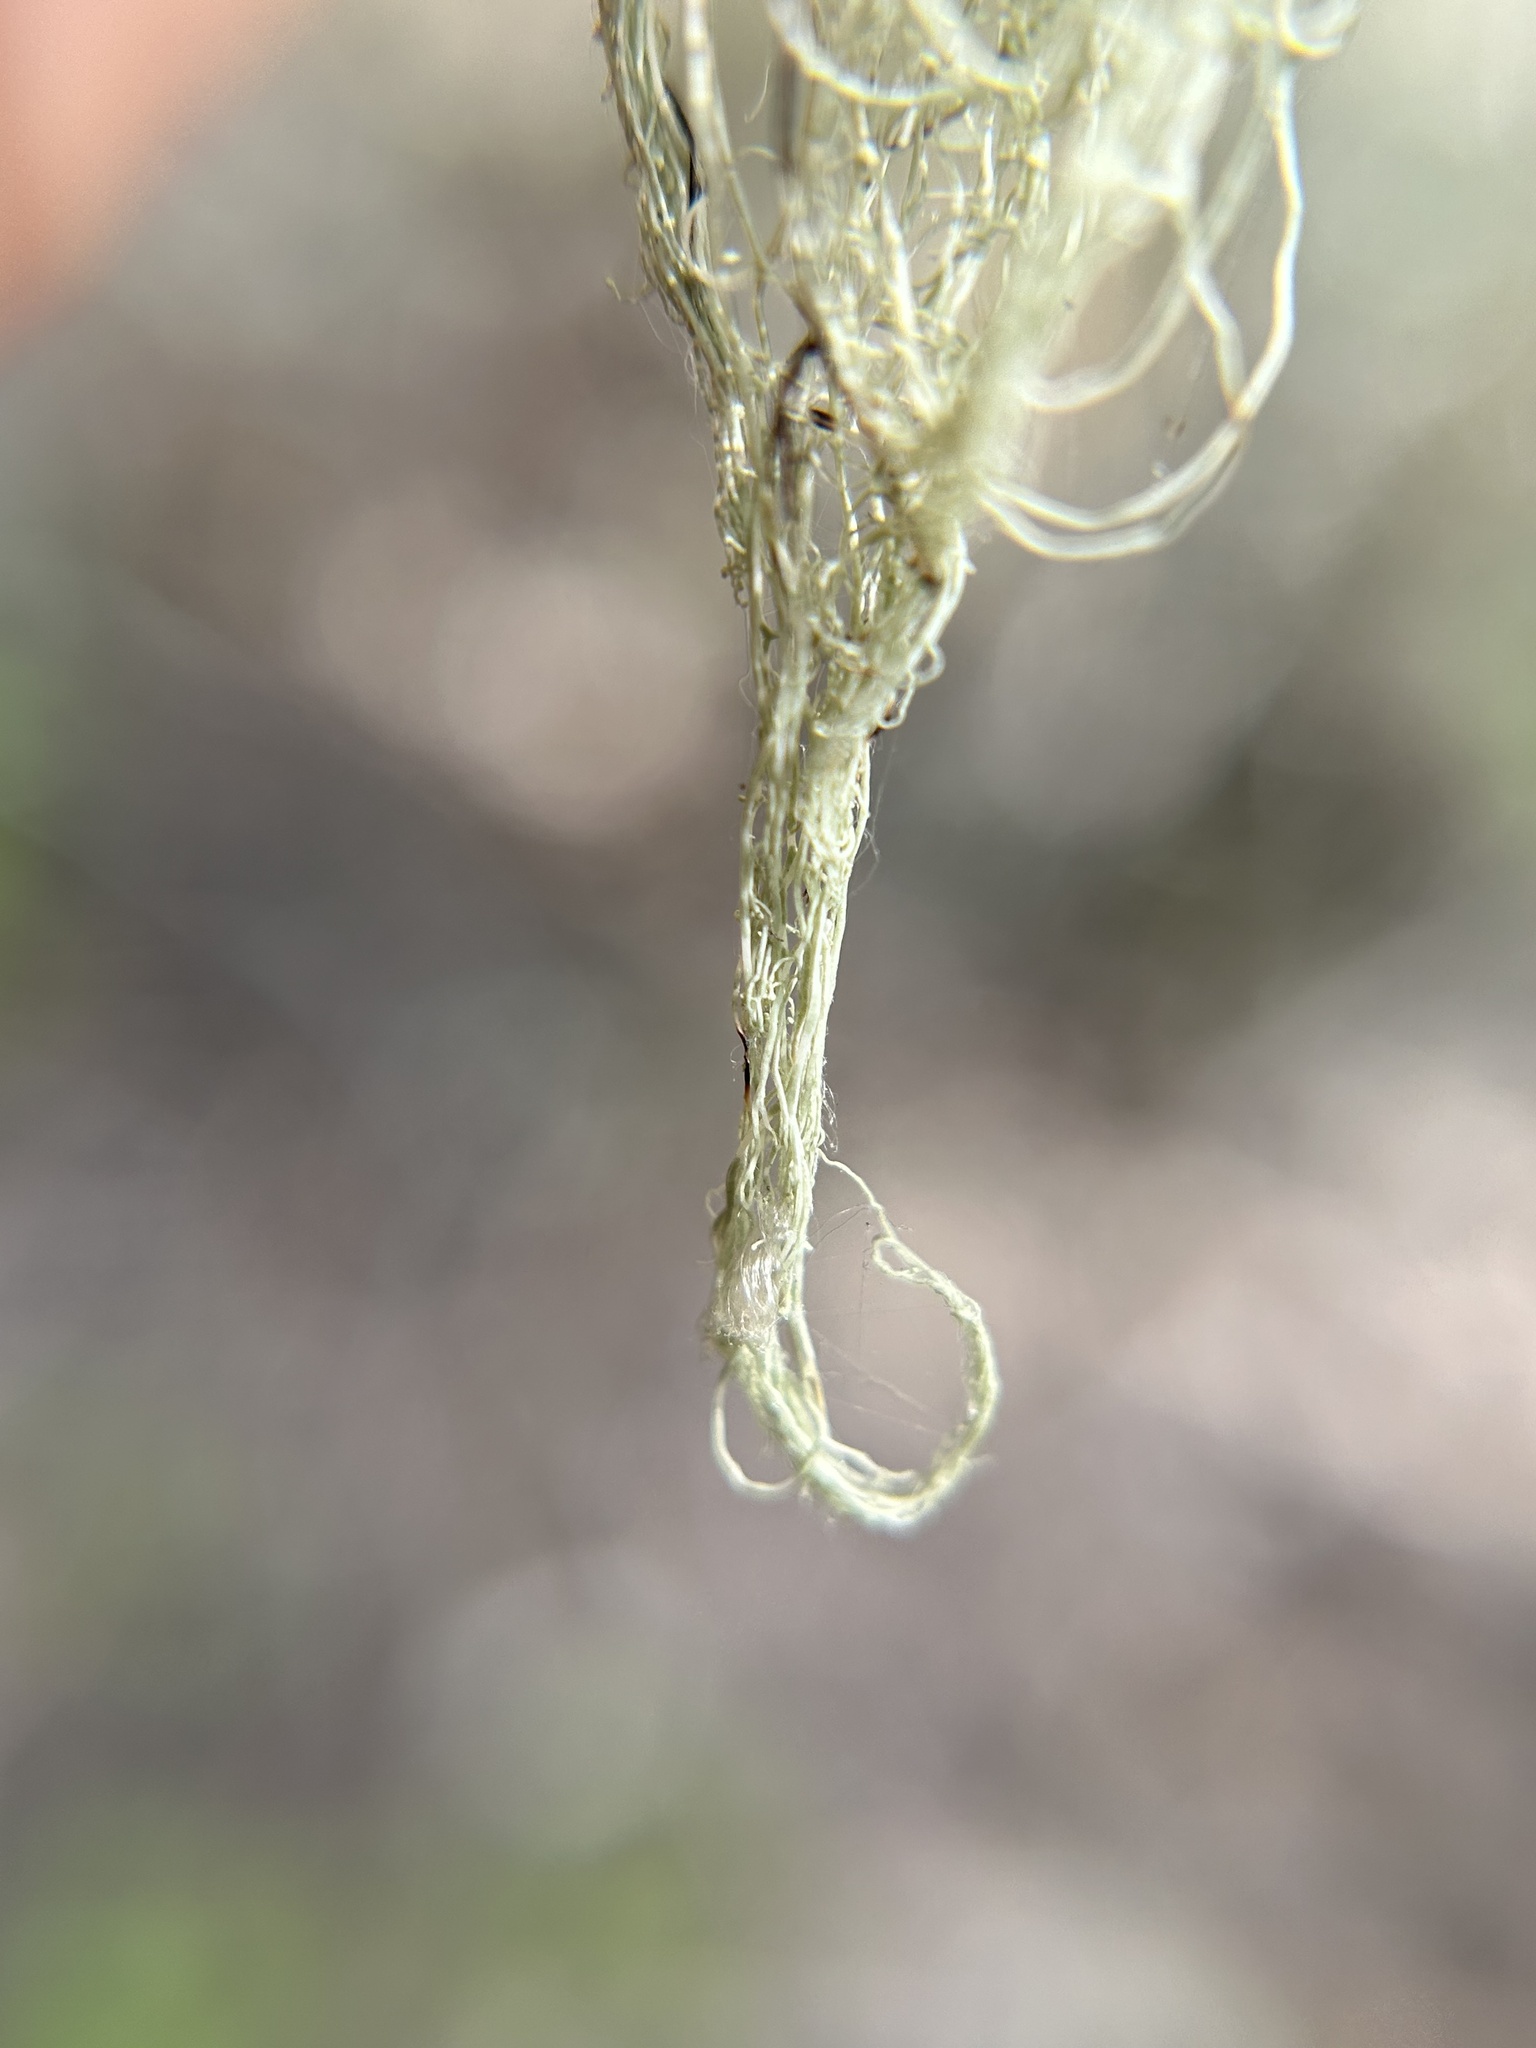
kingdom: Fungi
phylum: Ascomycota
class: Lecanoromycetes
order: Lecanorales
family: Ramalinaceae
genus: Ramalina
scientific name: Ramalina menziesii
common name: Lace lichen
